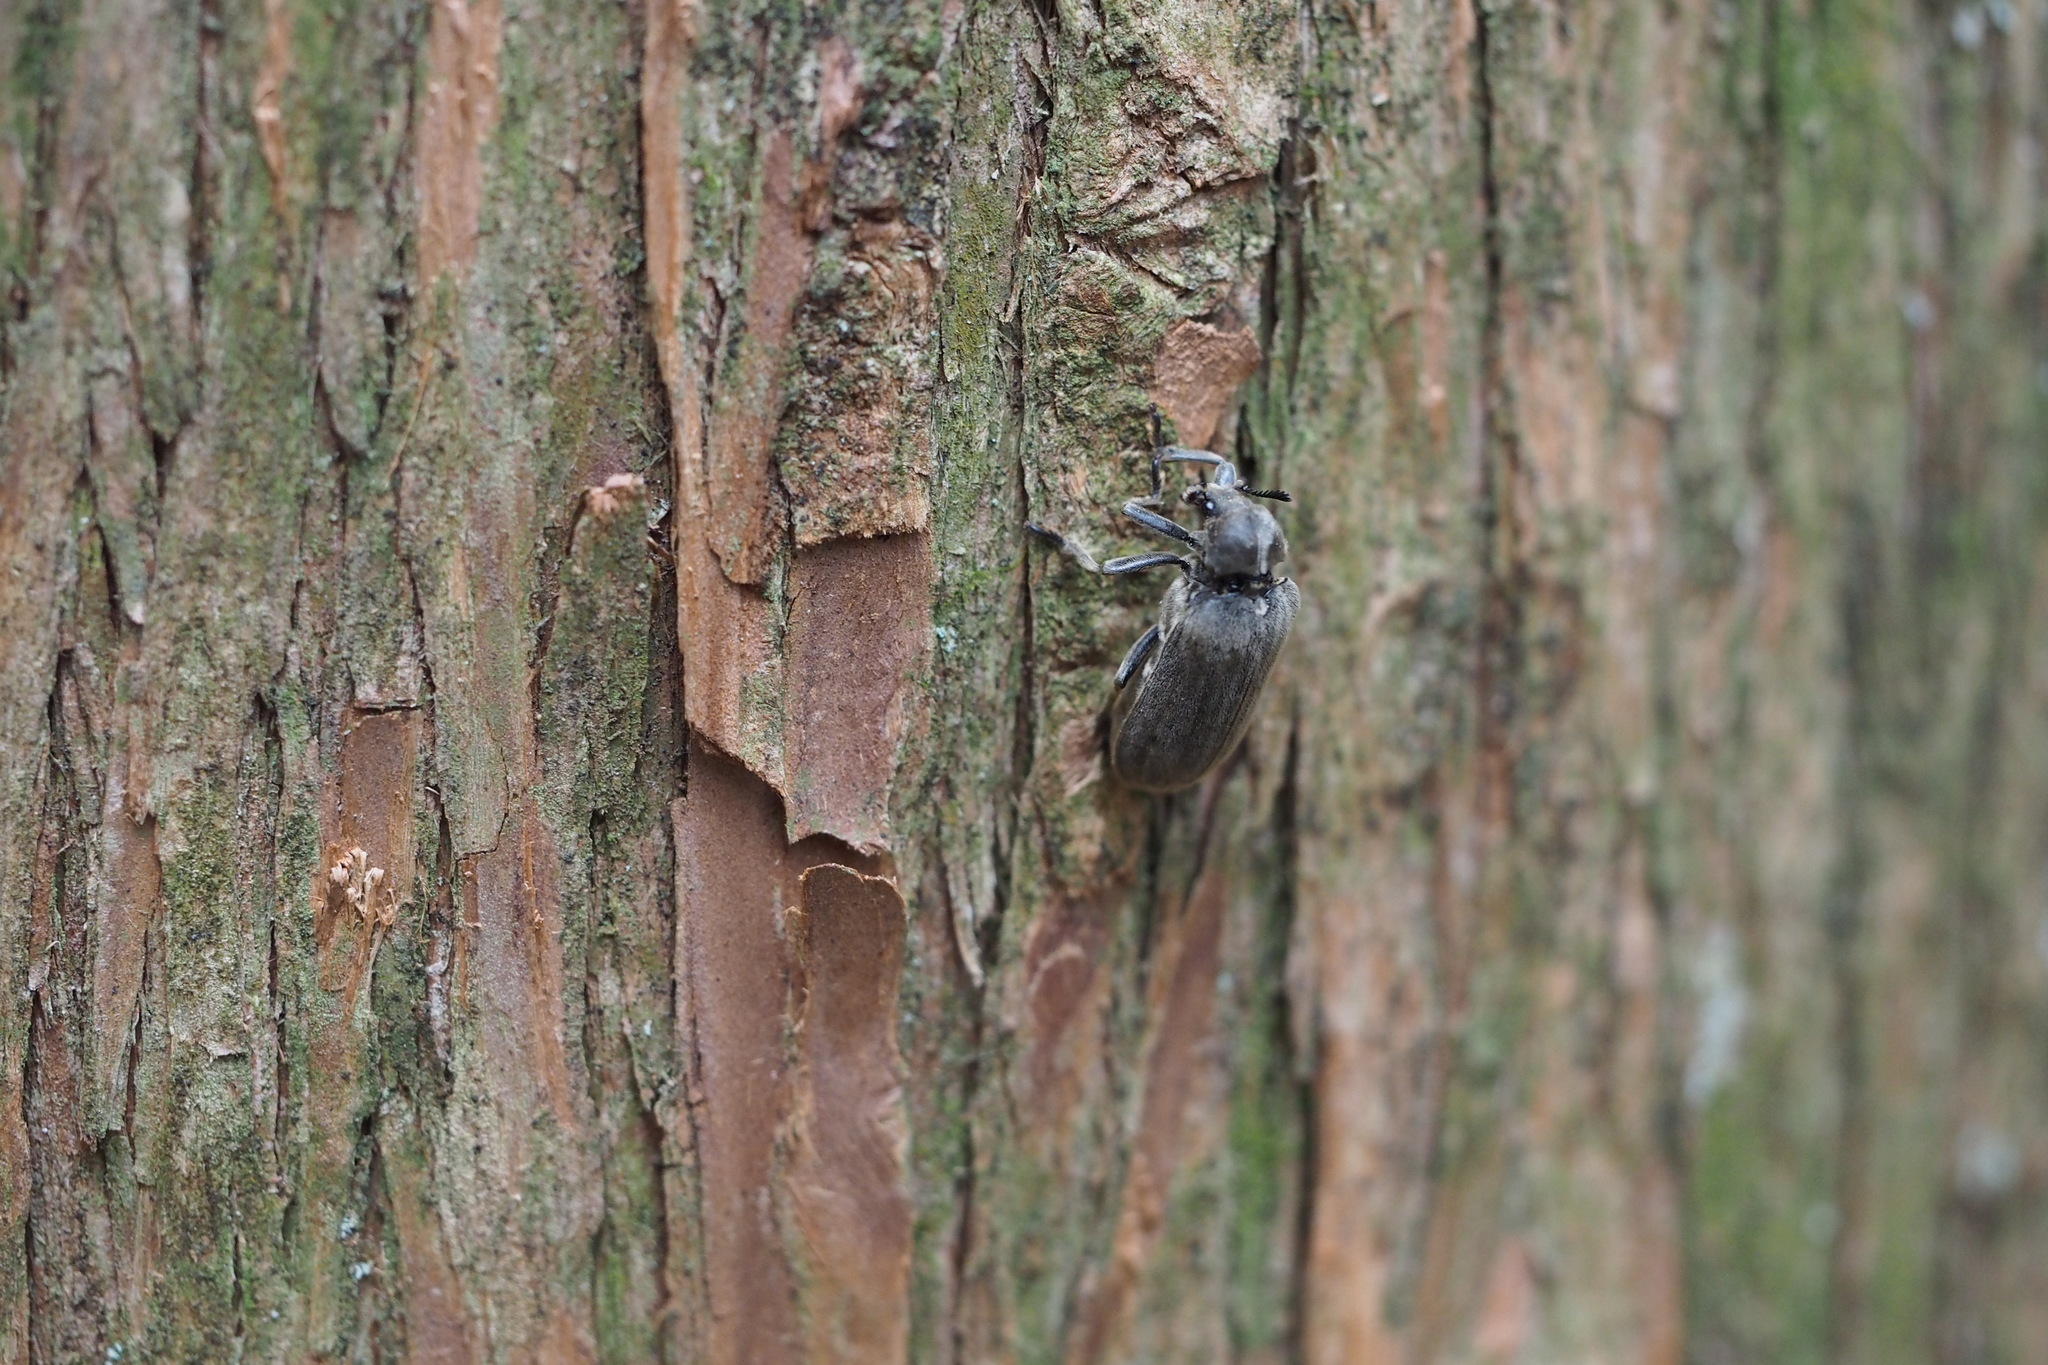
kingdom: Animalia
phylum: Arthropoda
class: Insecta
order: Coleoptera
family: Rhipiceridae
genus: Sandalus
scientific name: Sandalus segnis
